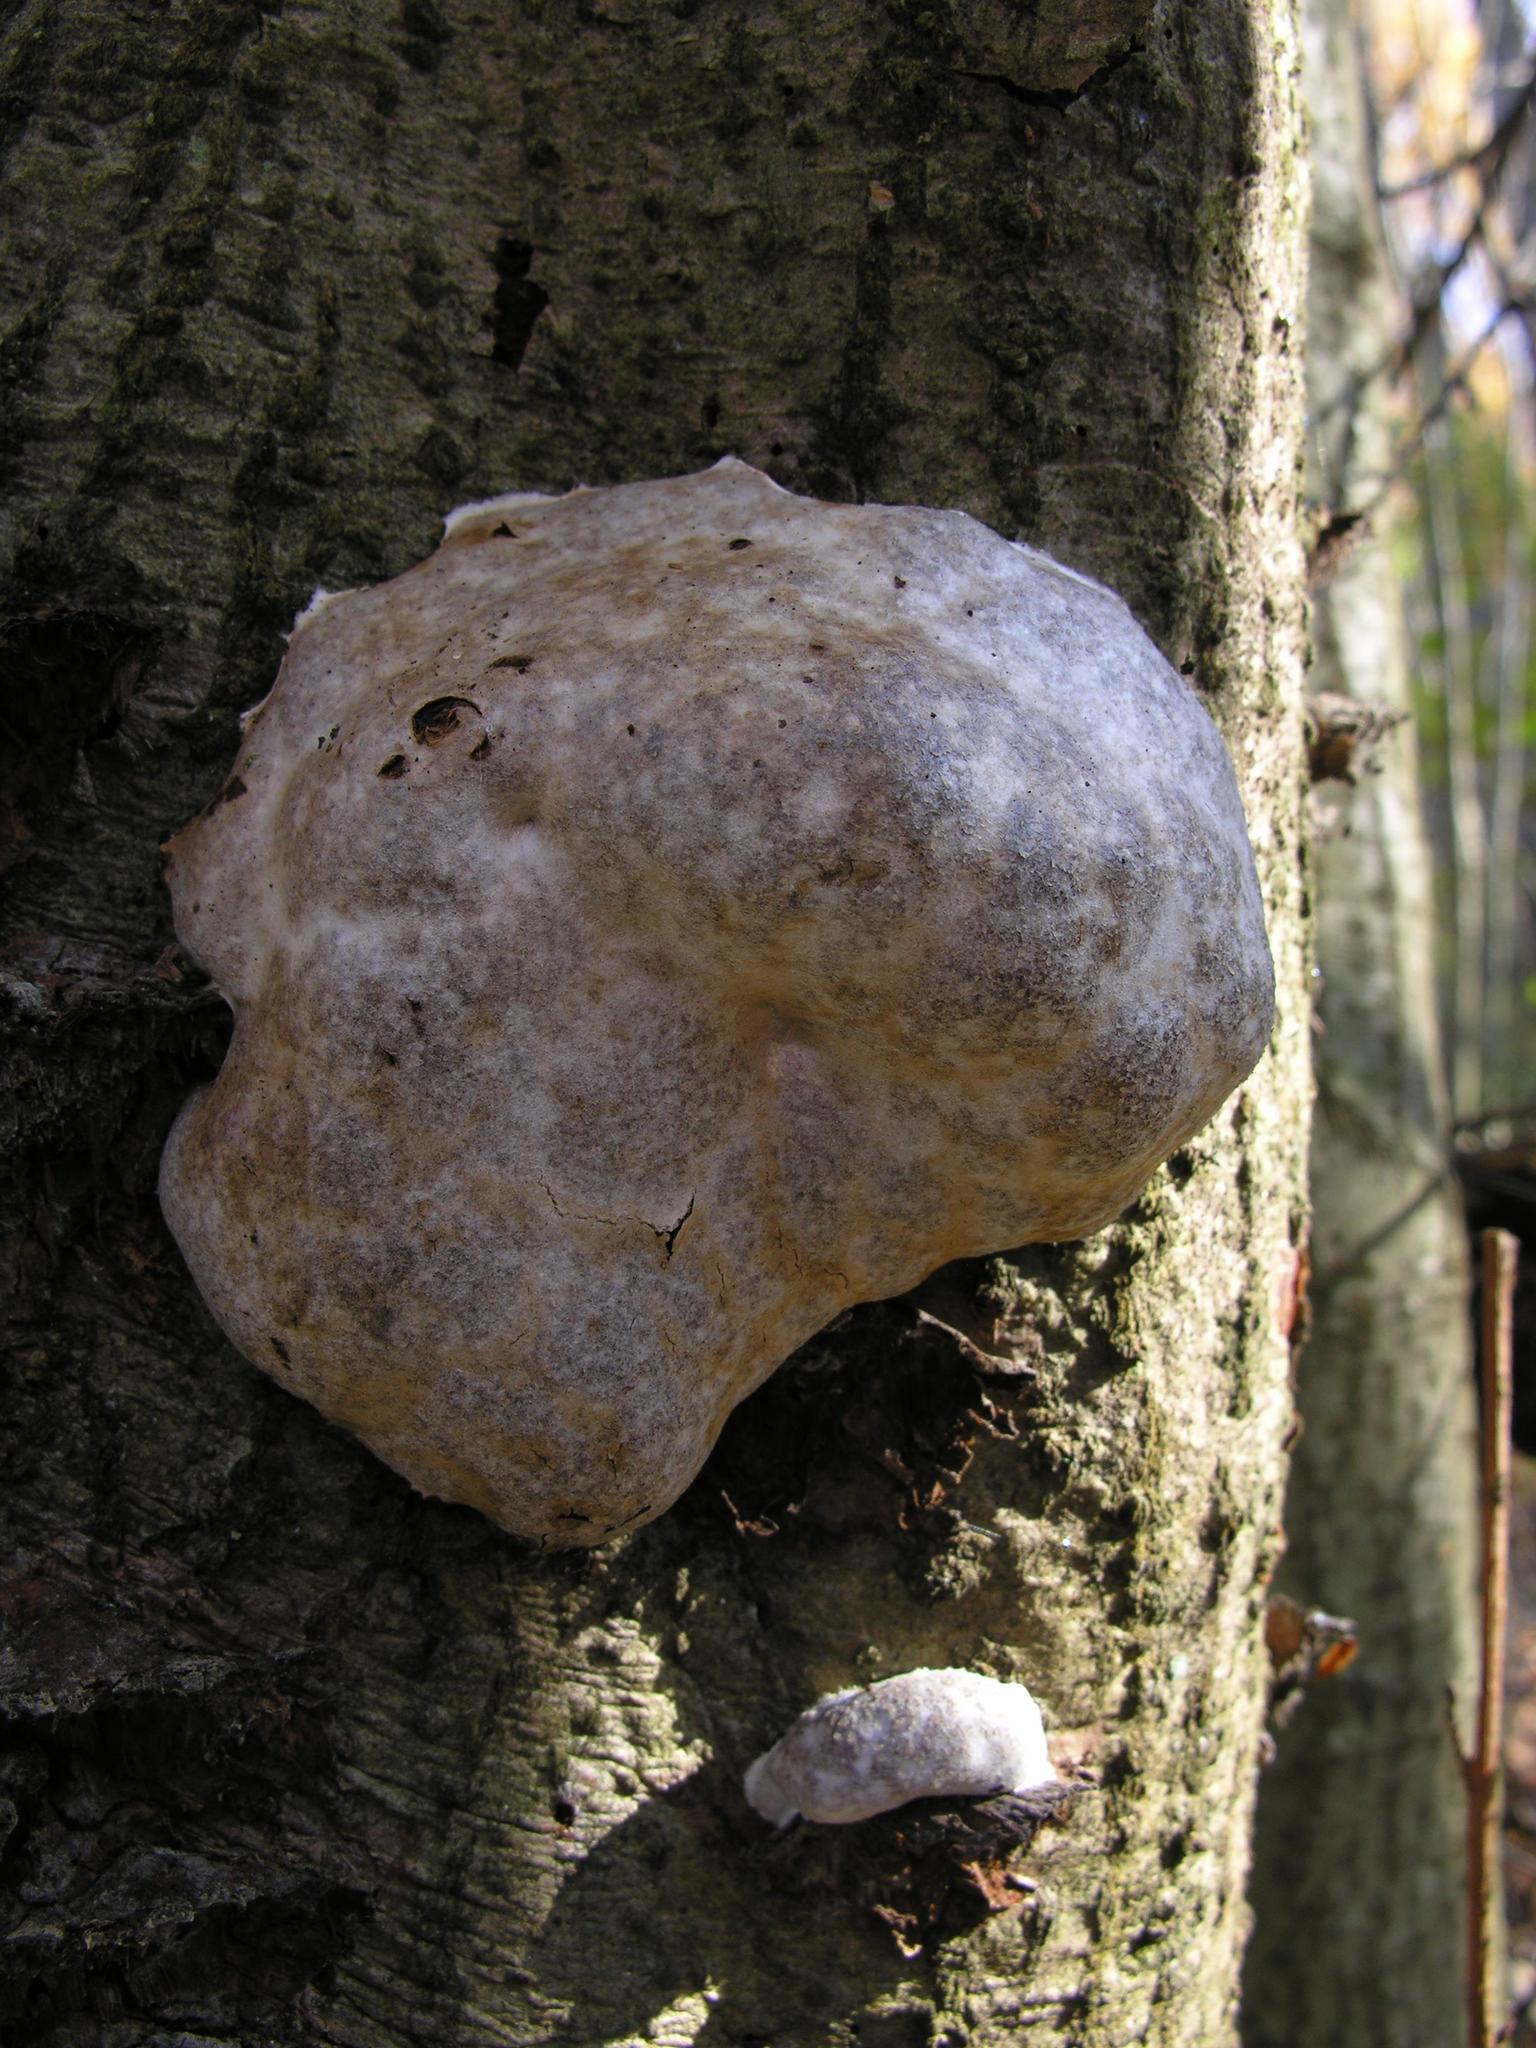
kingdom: Protozoa
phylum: Mycetozoa
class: Myxomycetes
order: Cribrariales
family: Tubiferaceae
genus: Reticularia
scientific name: Reticularia lycoperdon
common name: False puffball
